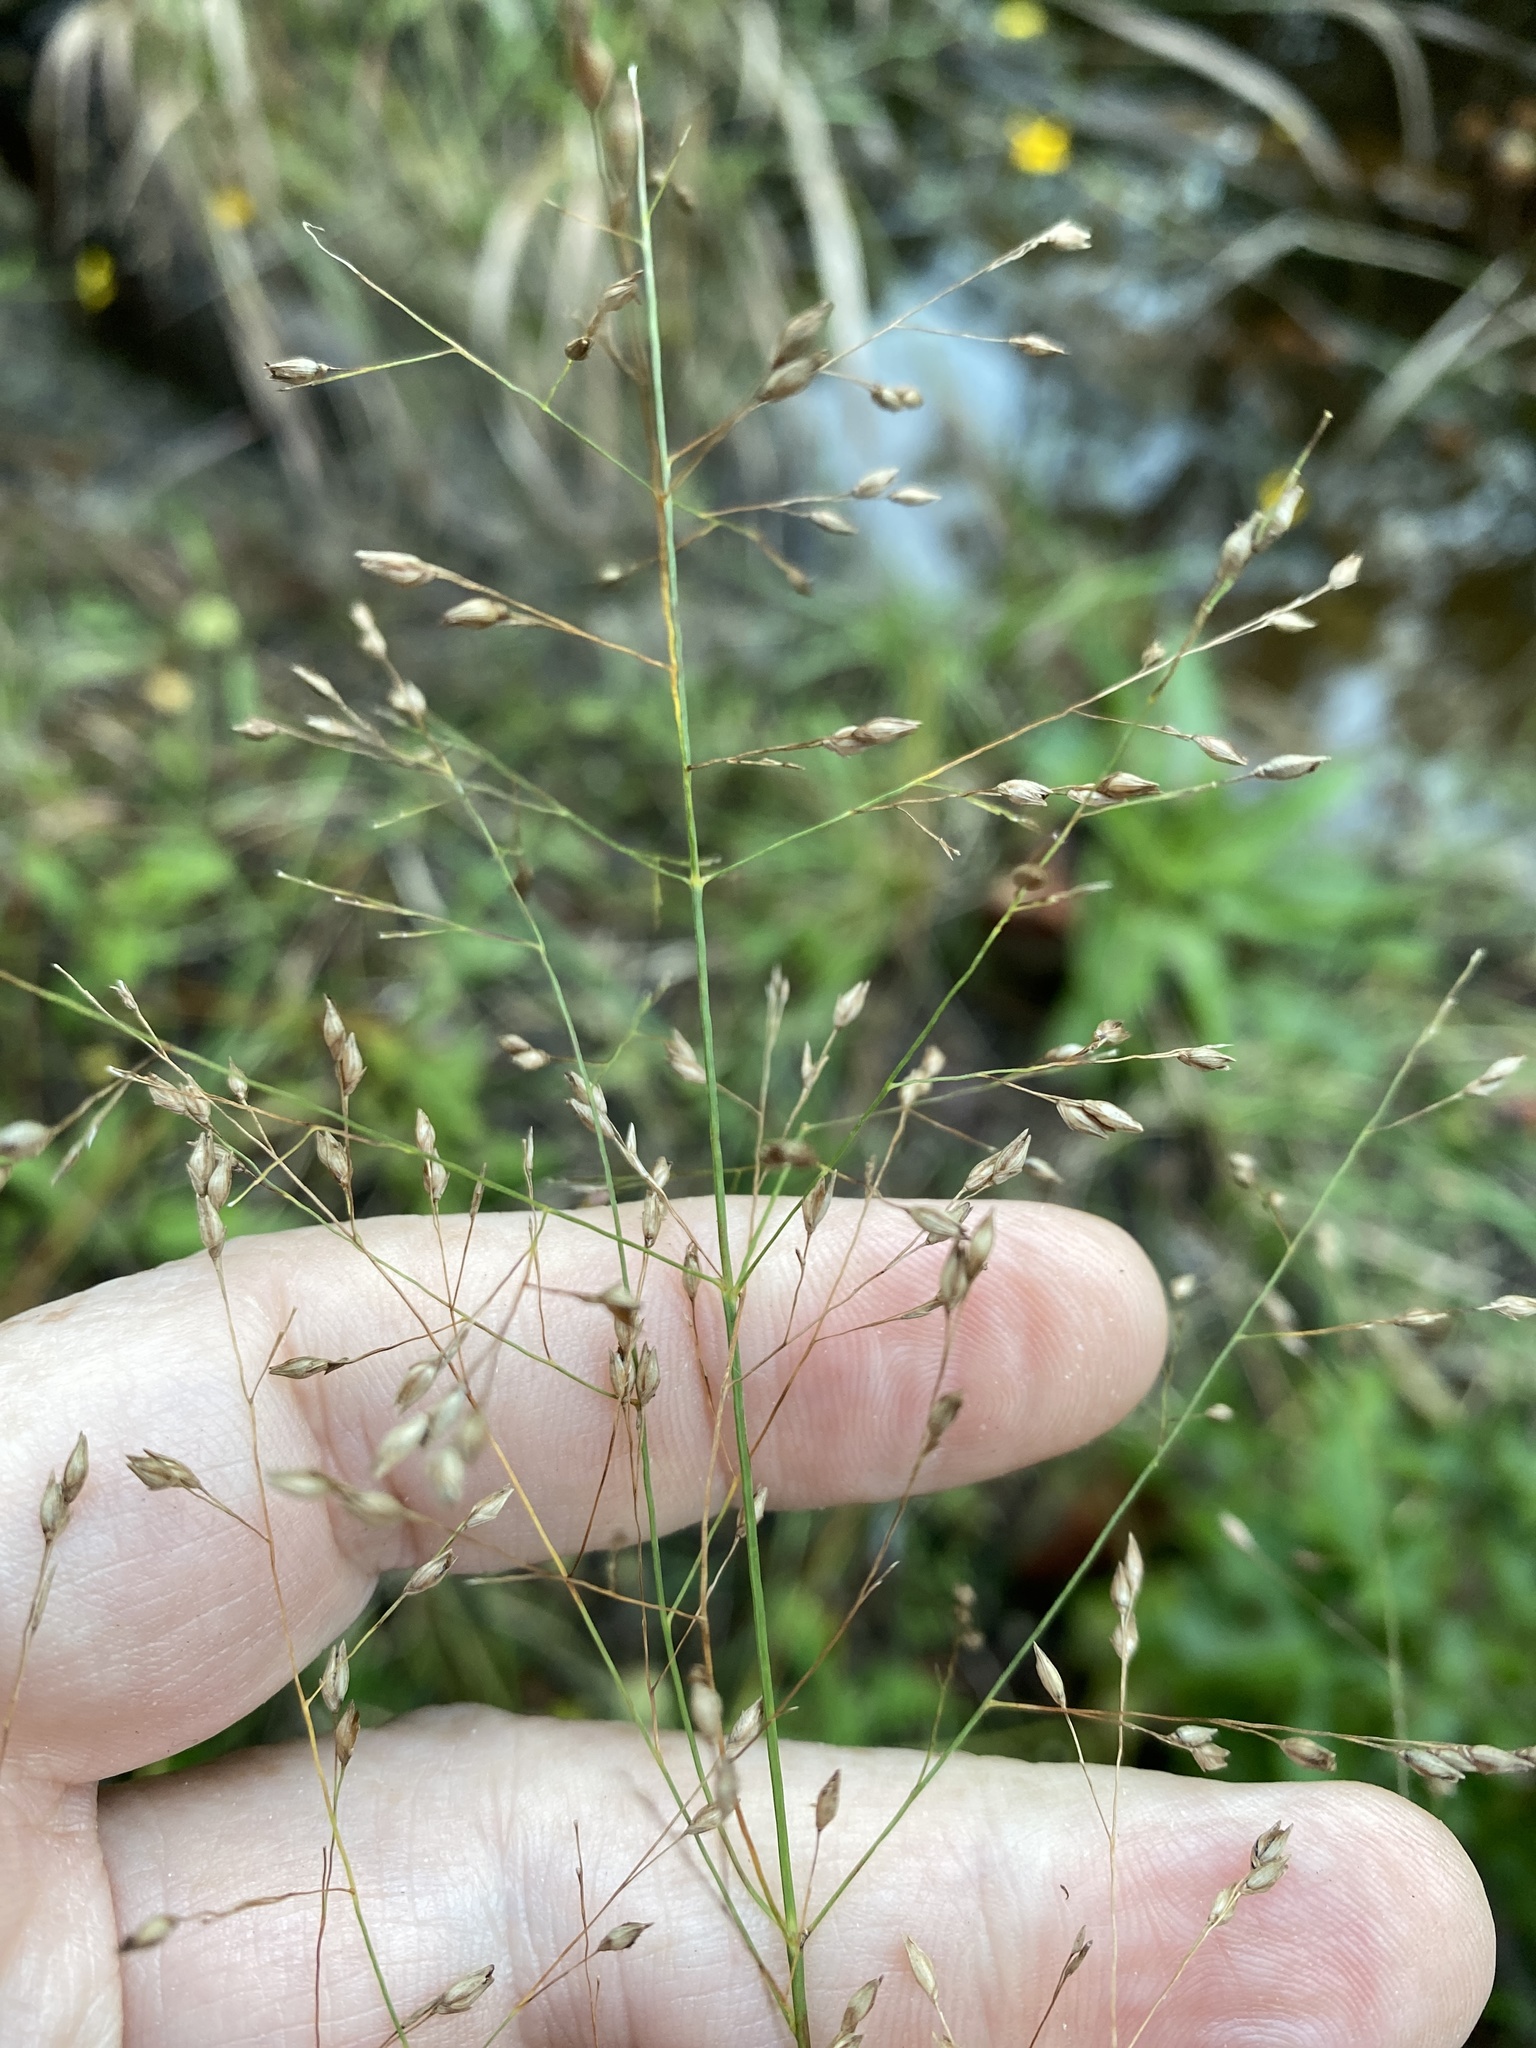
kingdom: Plantae
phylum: Tracheophyta
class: Liliopsida
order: Poales
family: Poaceae
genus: Panicum
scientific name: Panicum virgatum
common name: Switchgrass
